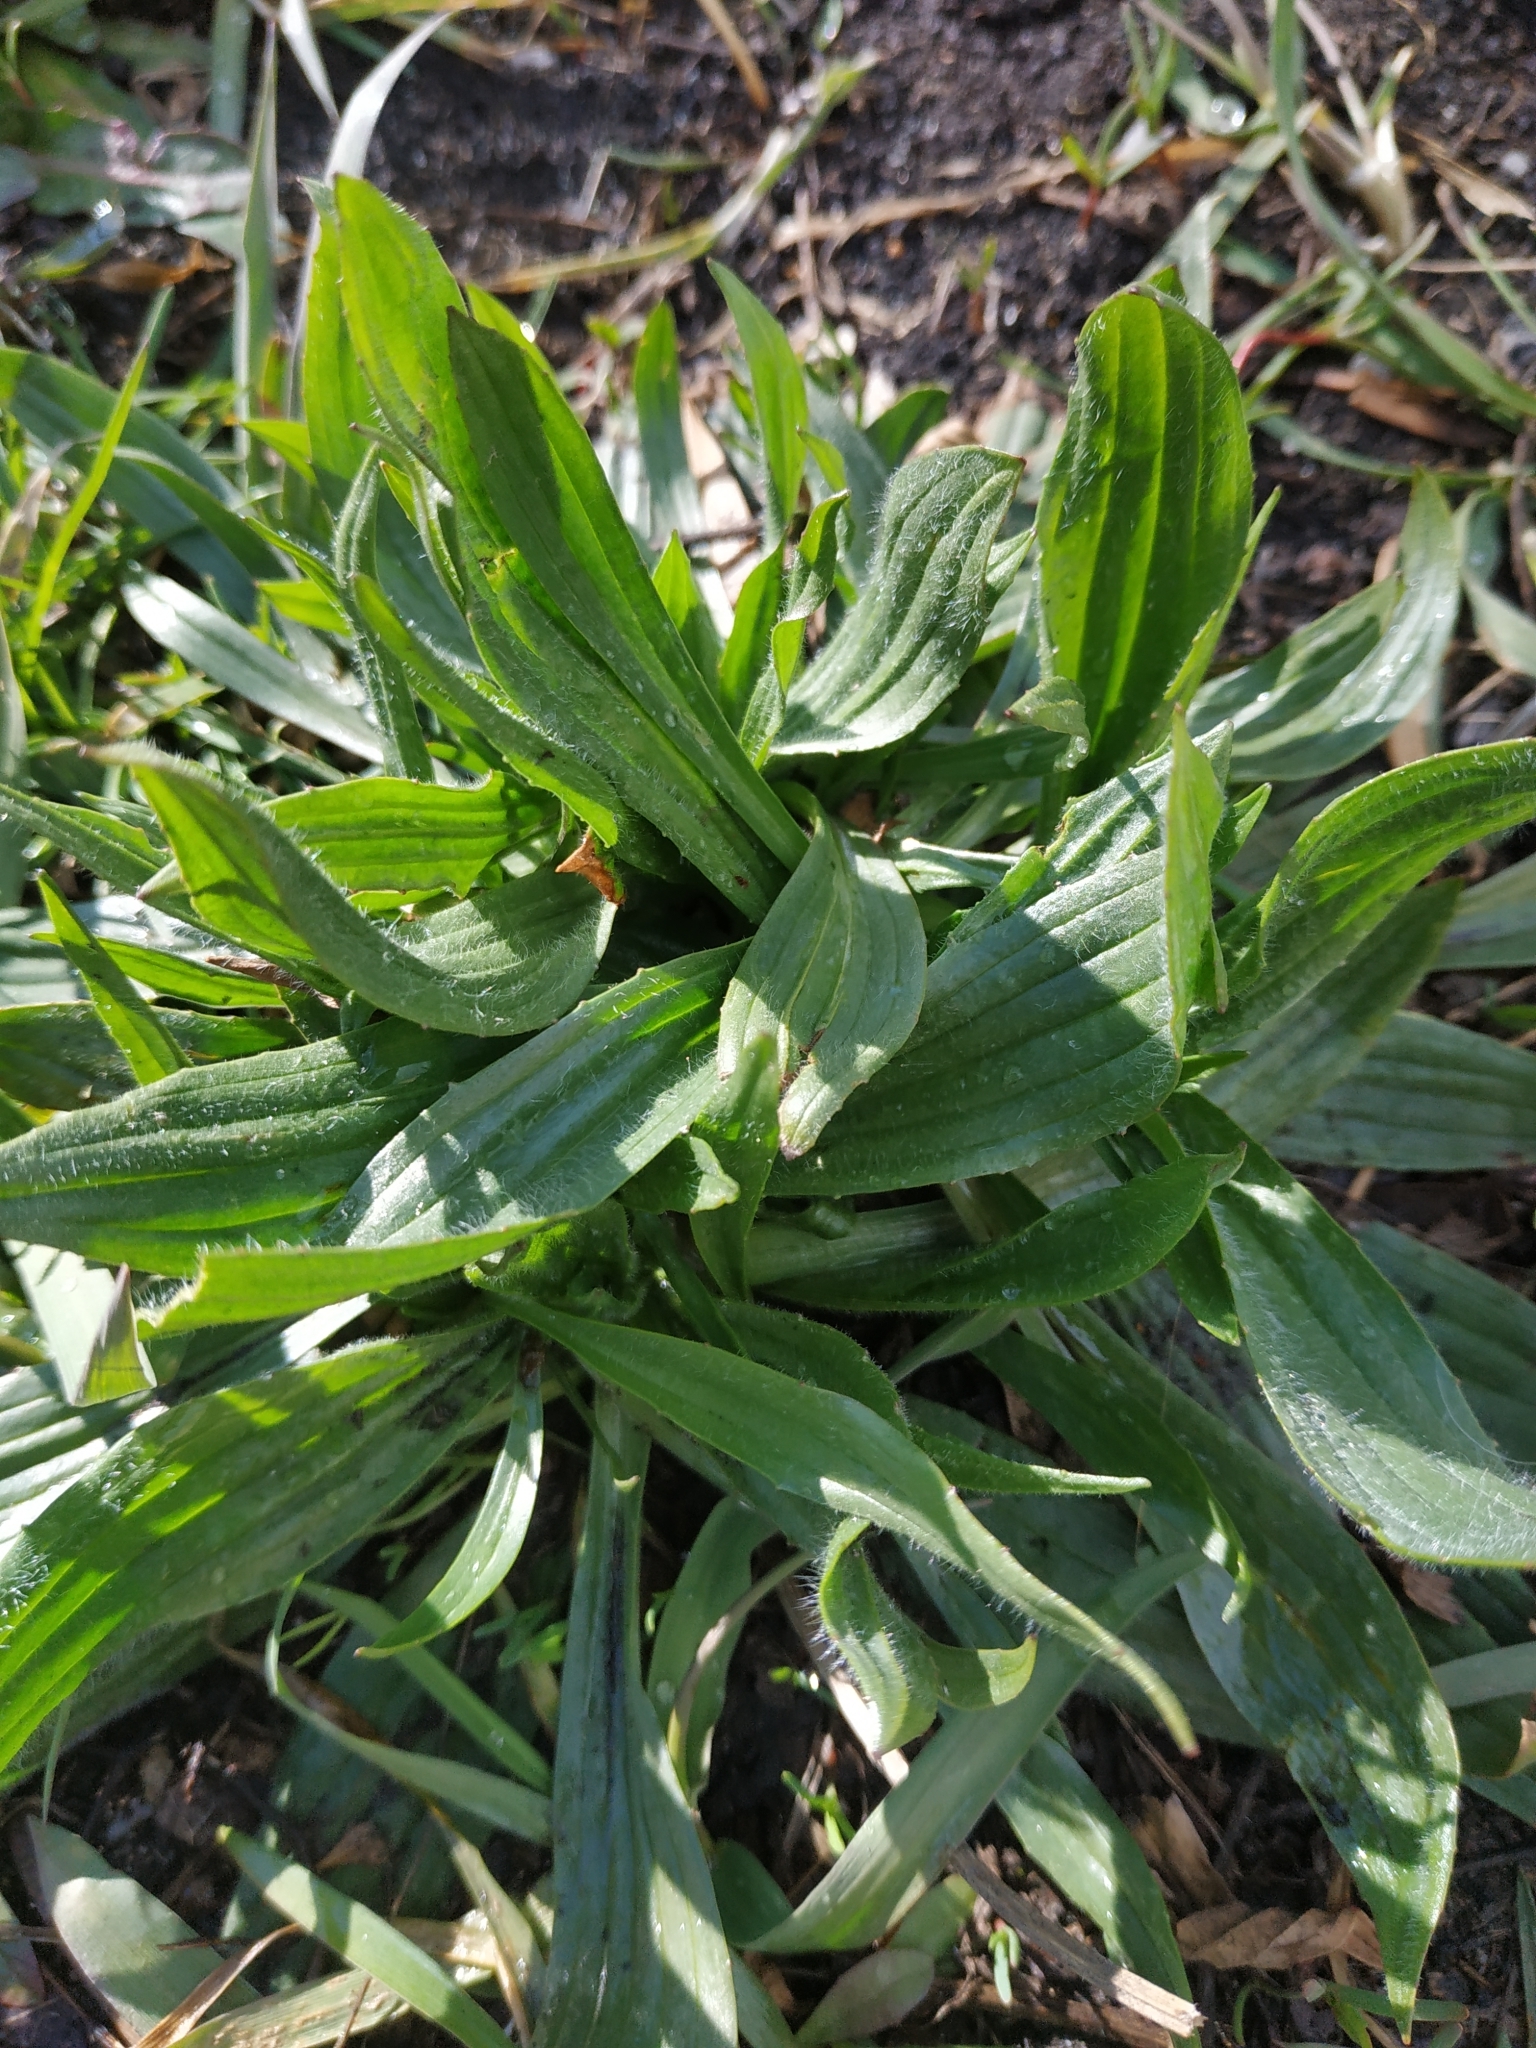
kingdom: Plantae
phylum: Tracheophyta
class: Magnoliopsida
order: Lamiales
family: Plantaginaceae
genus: Plantago
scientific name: Plantago lanceolata
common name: Ribwort plantain
